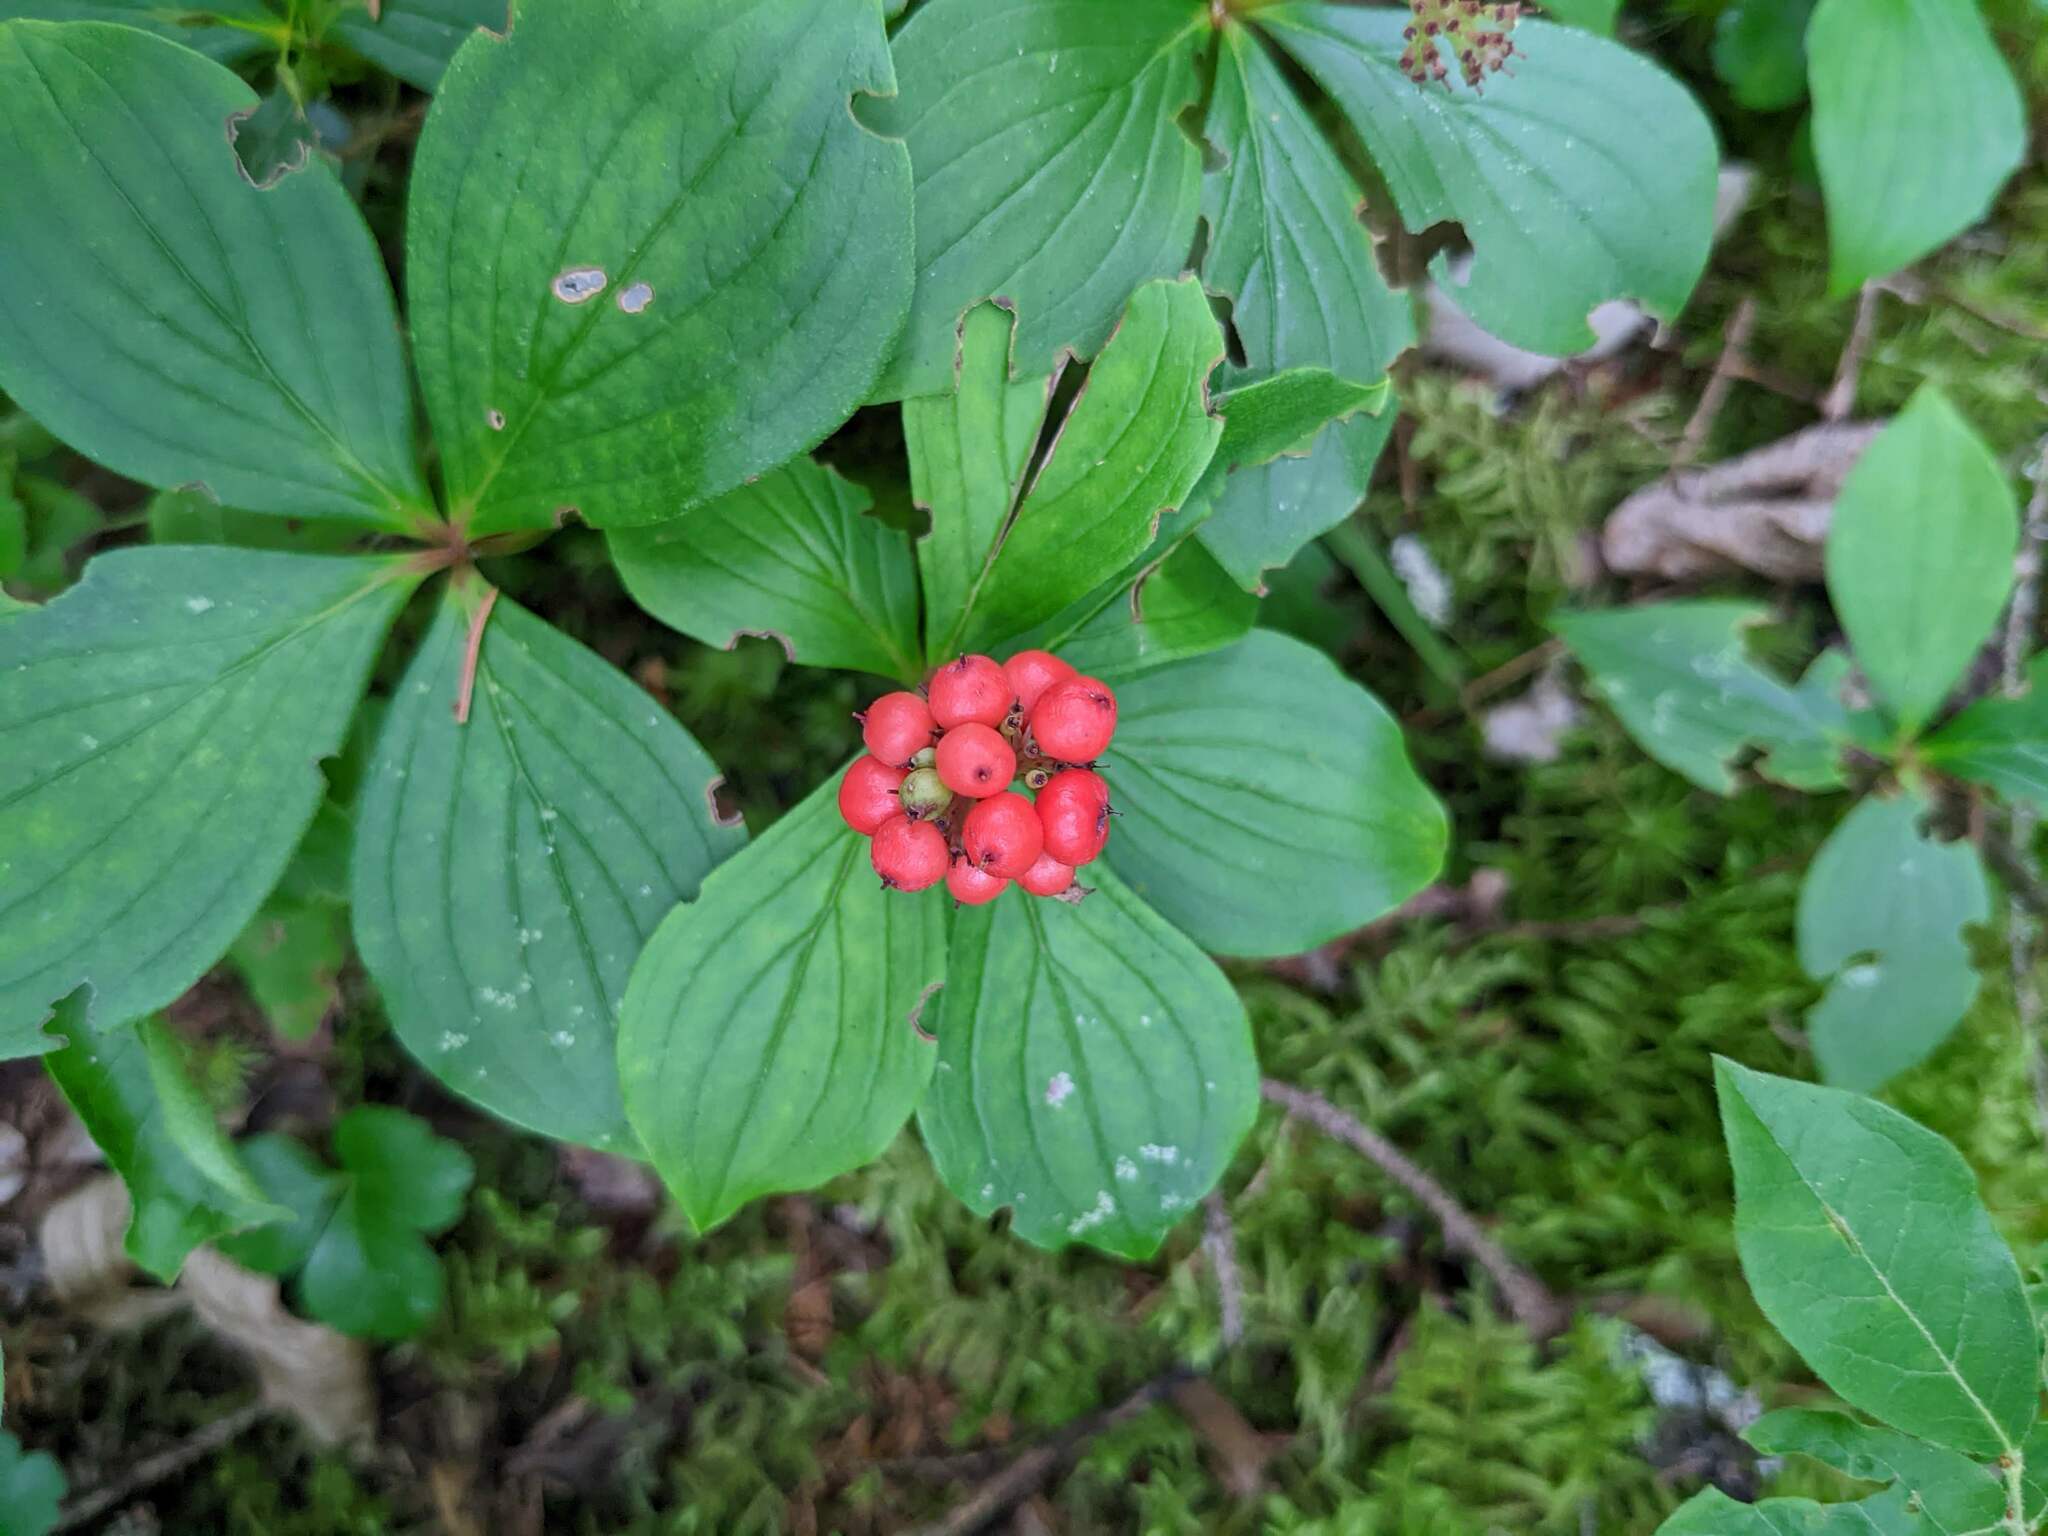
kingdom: Plantae
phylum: Tracheophyta
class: Magnoliopsida
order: Cornales
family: Cornaceae
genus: Cornus
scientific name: Cornus canadensis
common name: Creeping dogwood
